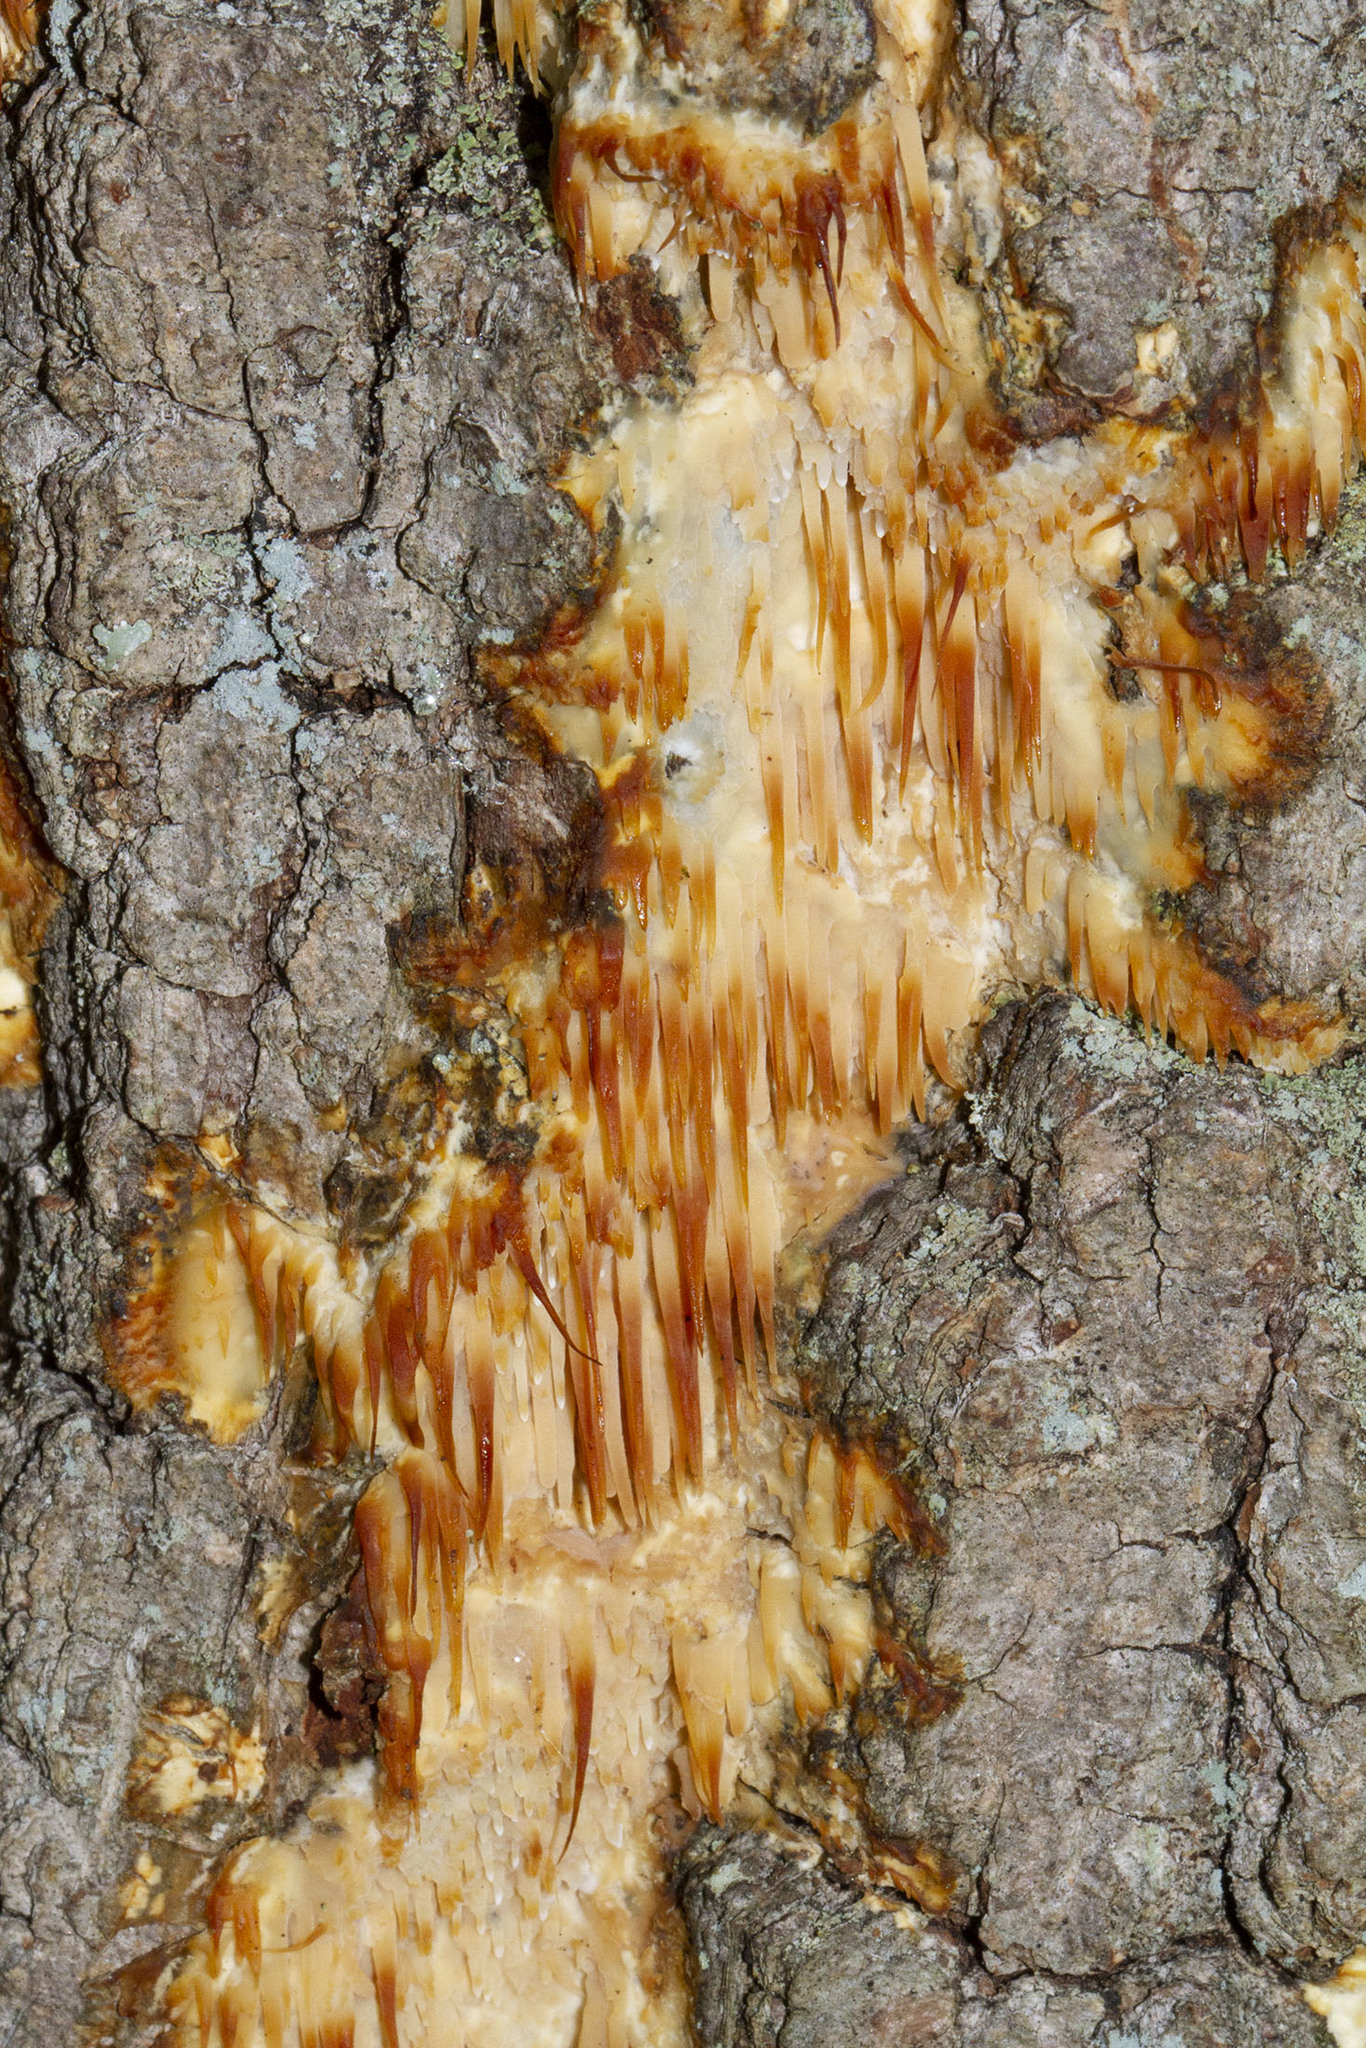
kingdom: Fungi
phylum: Basidiomycota
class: Agaricomycetes
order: Agaricales
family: Radulomycetaceae
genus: Radulomyces
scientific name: Radulomyces copelandii
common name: Asian beauty
